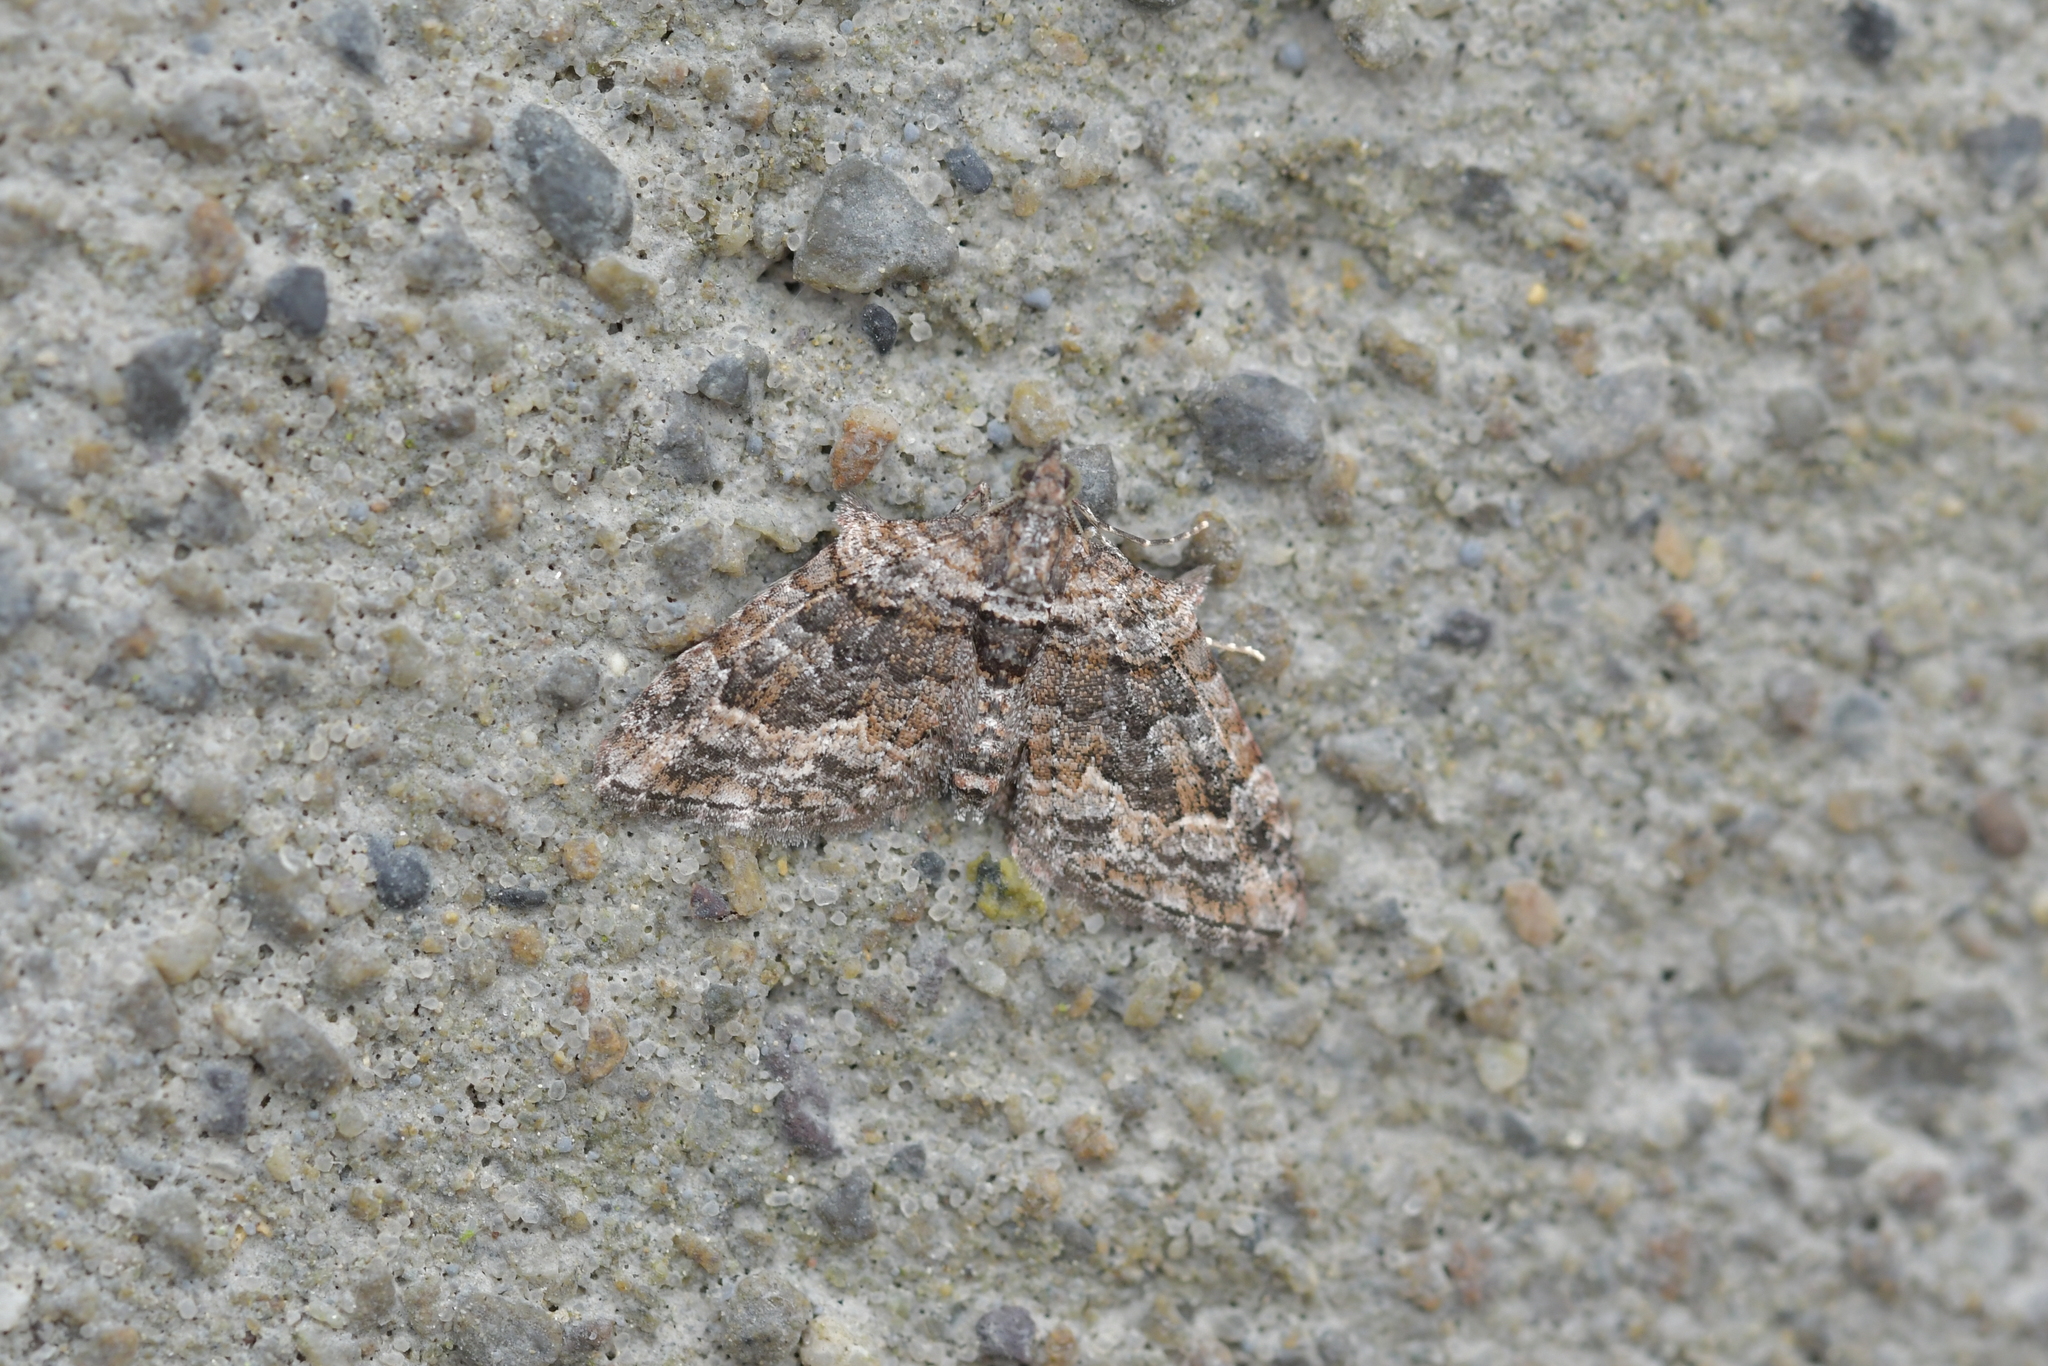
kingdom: Animalia
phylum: Arthropoda
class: Insecta
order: Lepidoptera
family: Geometridae
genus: Phrissogonus
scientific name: Phrissogonus laticostata
